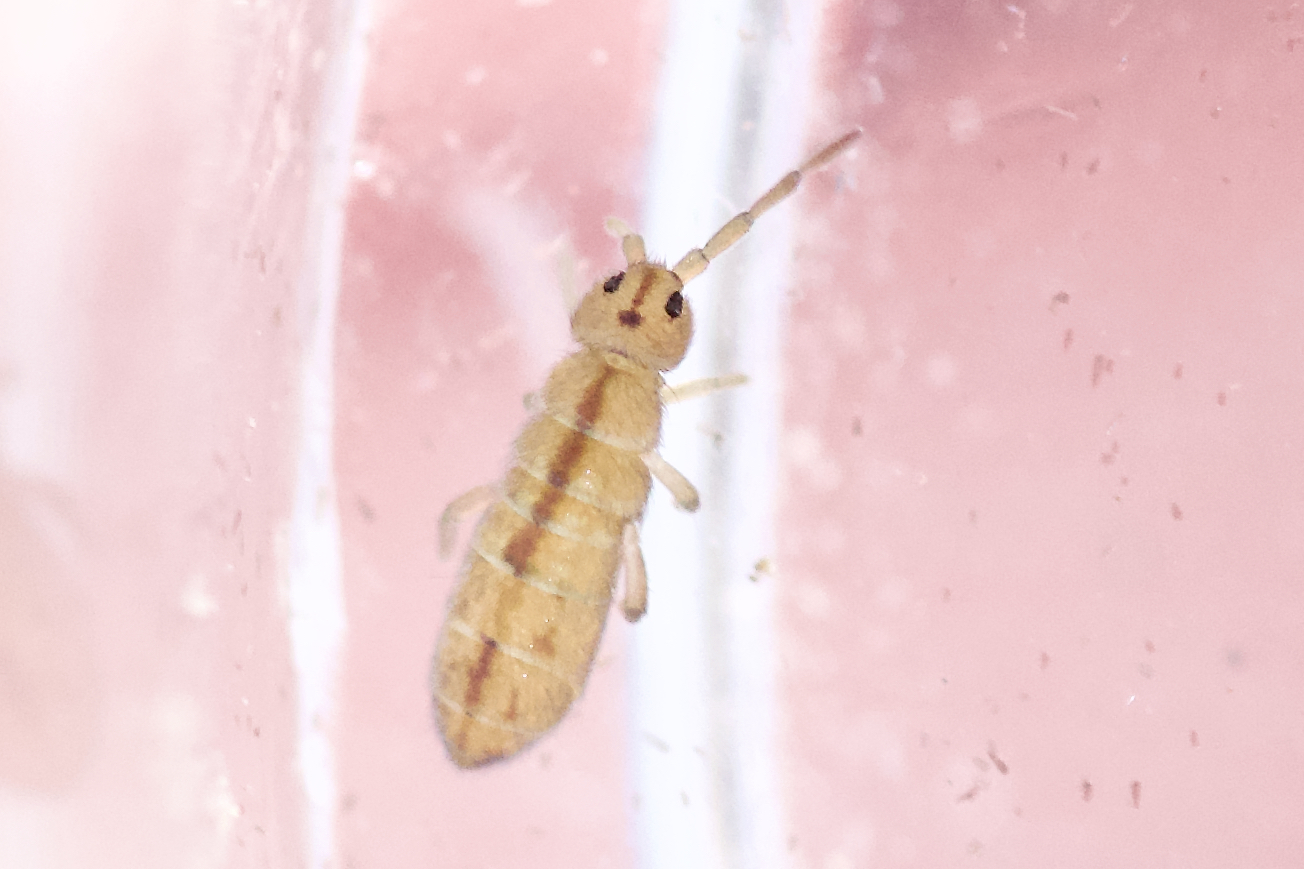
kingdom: Animalia
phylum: Arthropoda
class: Collembola
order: Entomobryomorpha
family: Isotomidae
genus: Isotomurus
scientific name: Isotomurus palustris
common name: Marsh springtail
